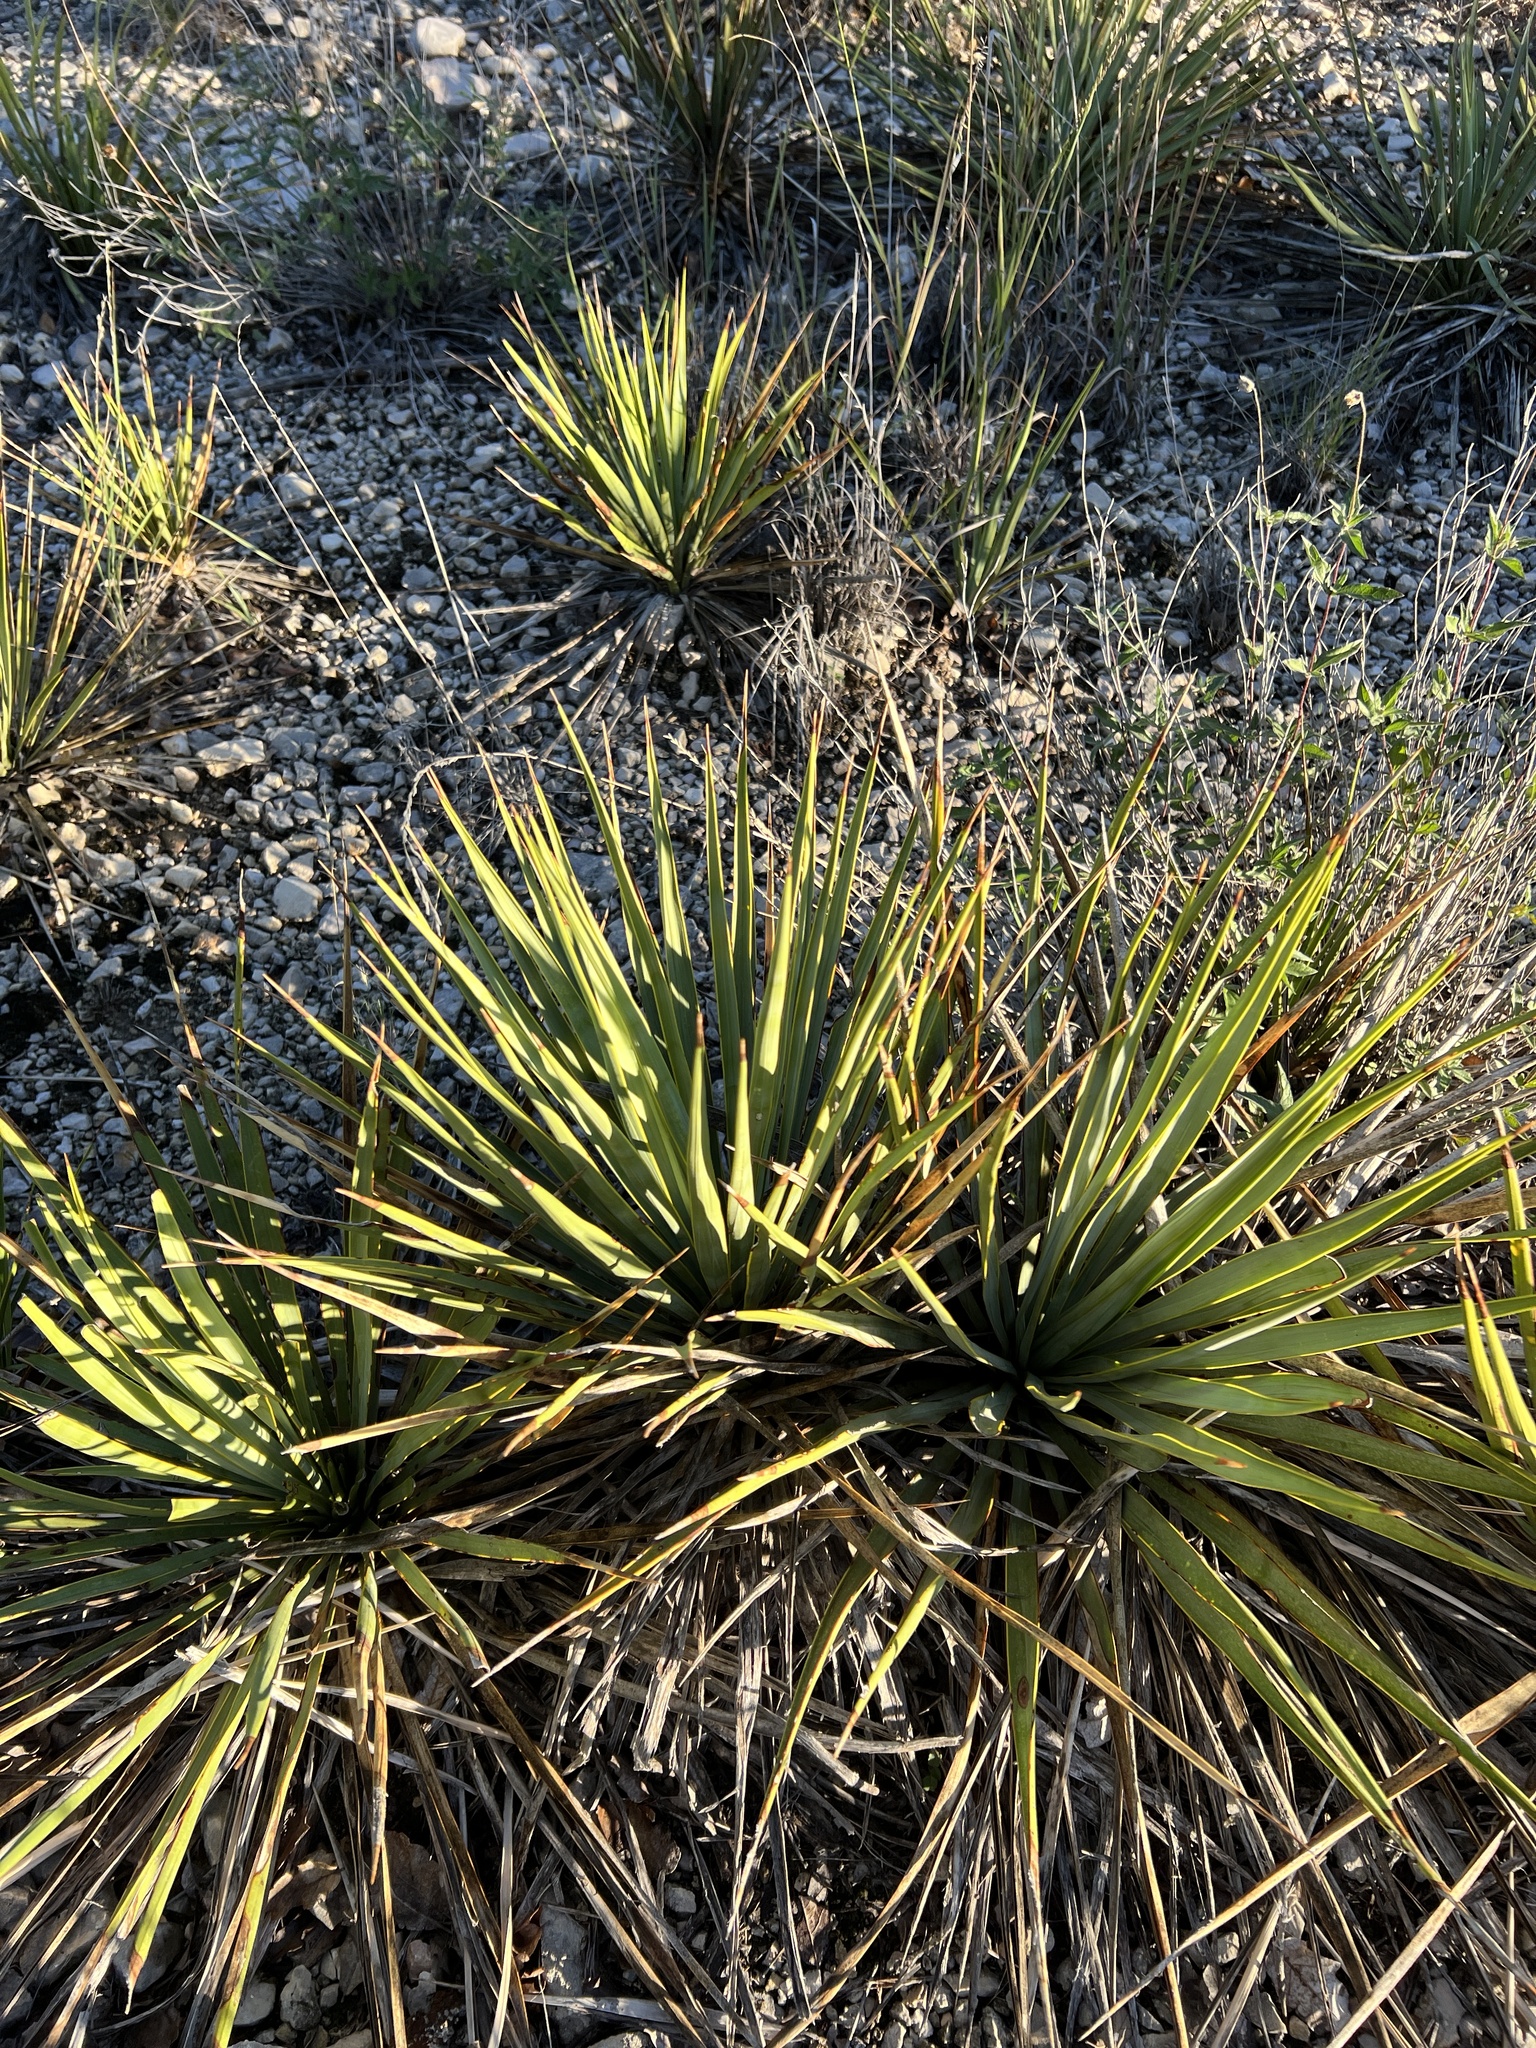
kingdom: Plantae
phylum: Tracheophyta
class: Liliopsida
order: Asparagales
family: Asparagaceae
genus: Yucca
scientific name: Yucca reverchonii
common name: San angelo yucca
